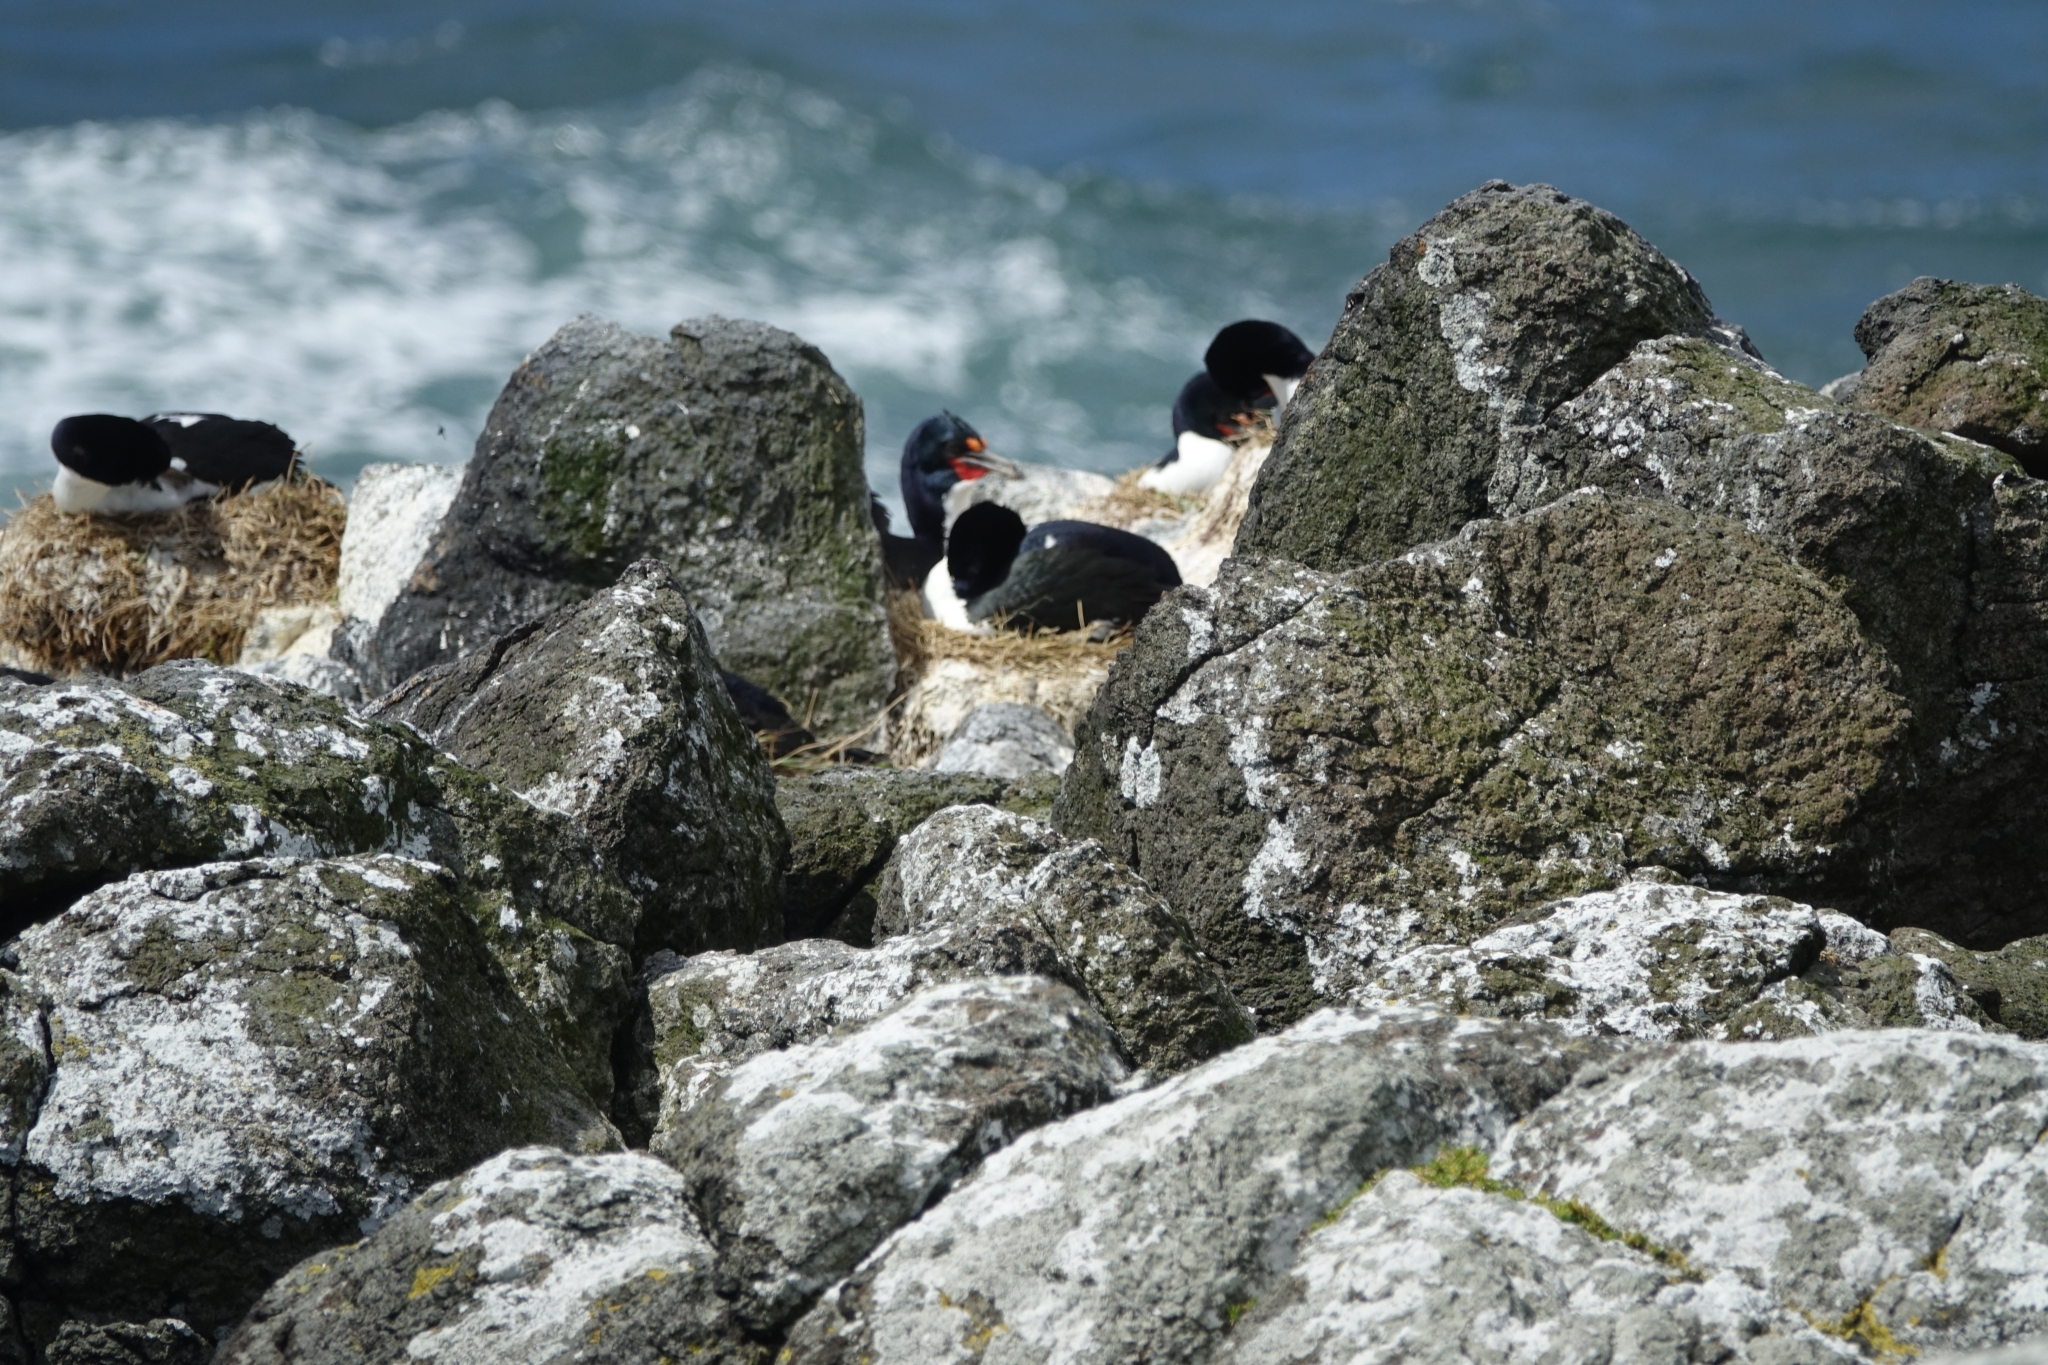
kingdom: Animalia
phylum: Chordata
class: Aves
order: Suliformes
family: Phalacrocoracidae
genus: Leucocarbo
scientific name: Leucocarbo onslowi
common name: Chatham shag
